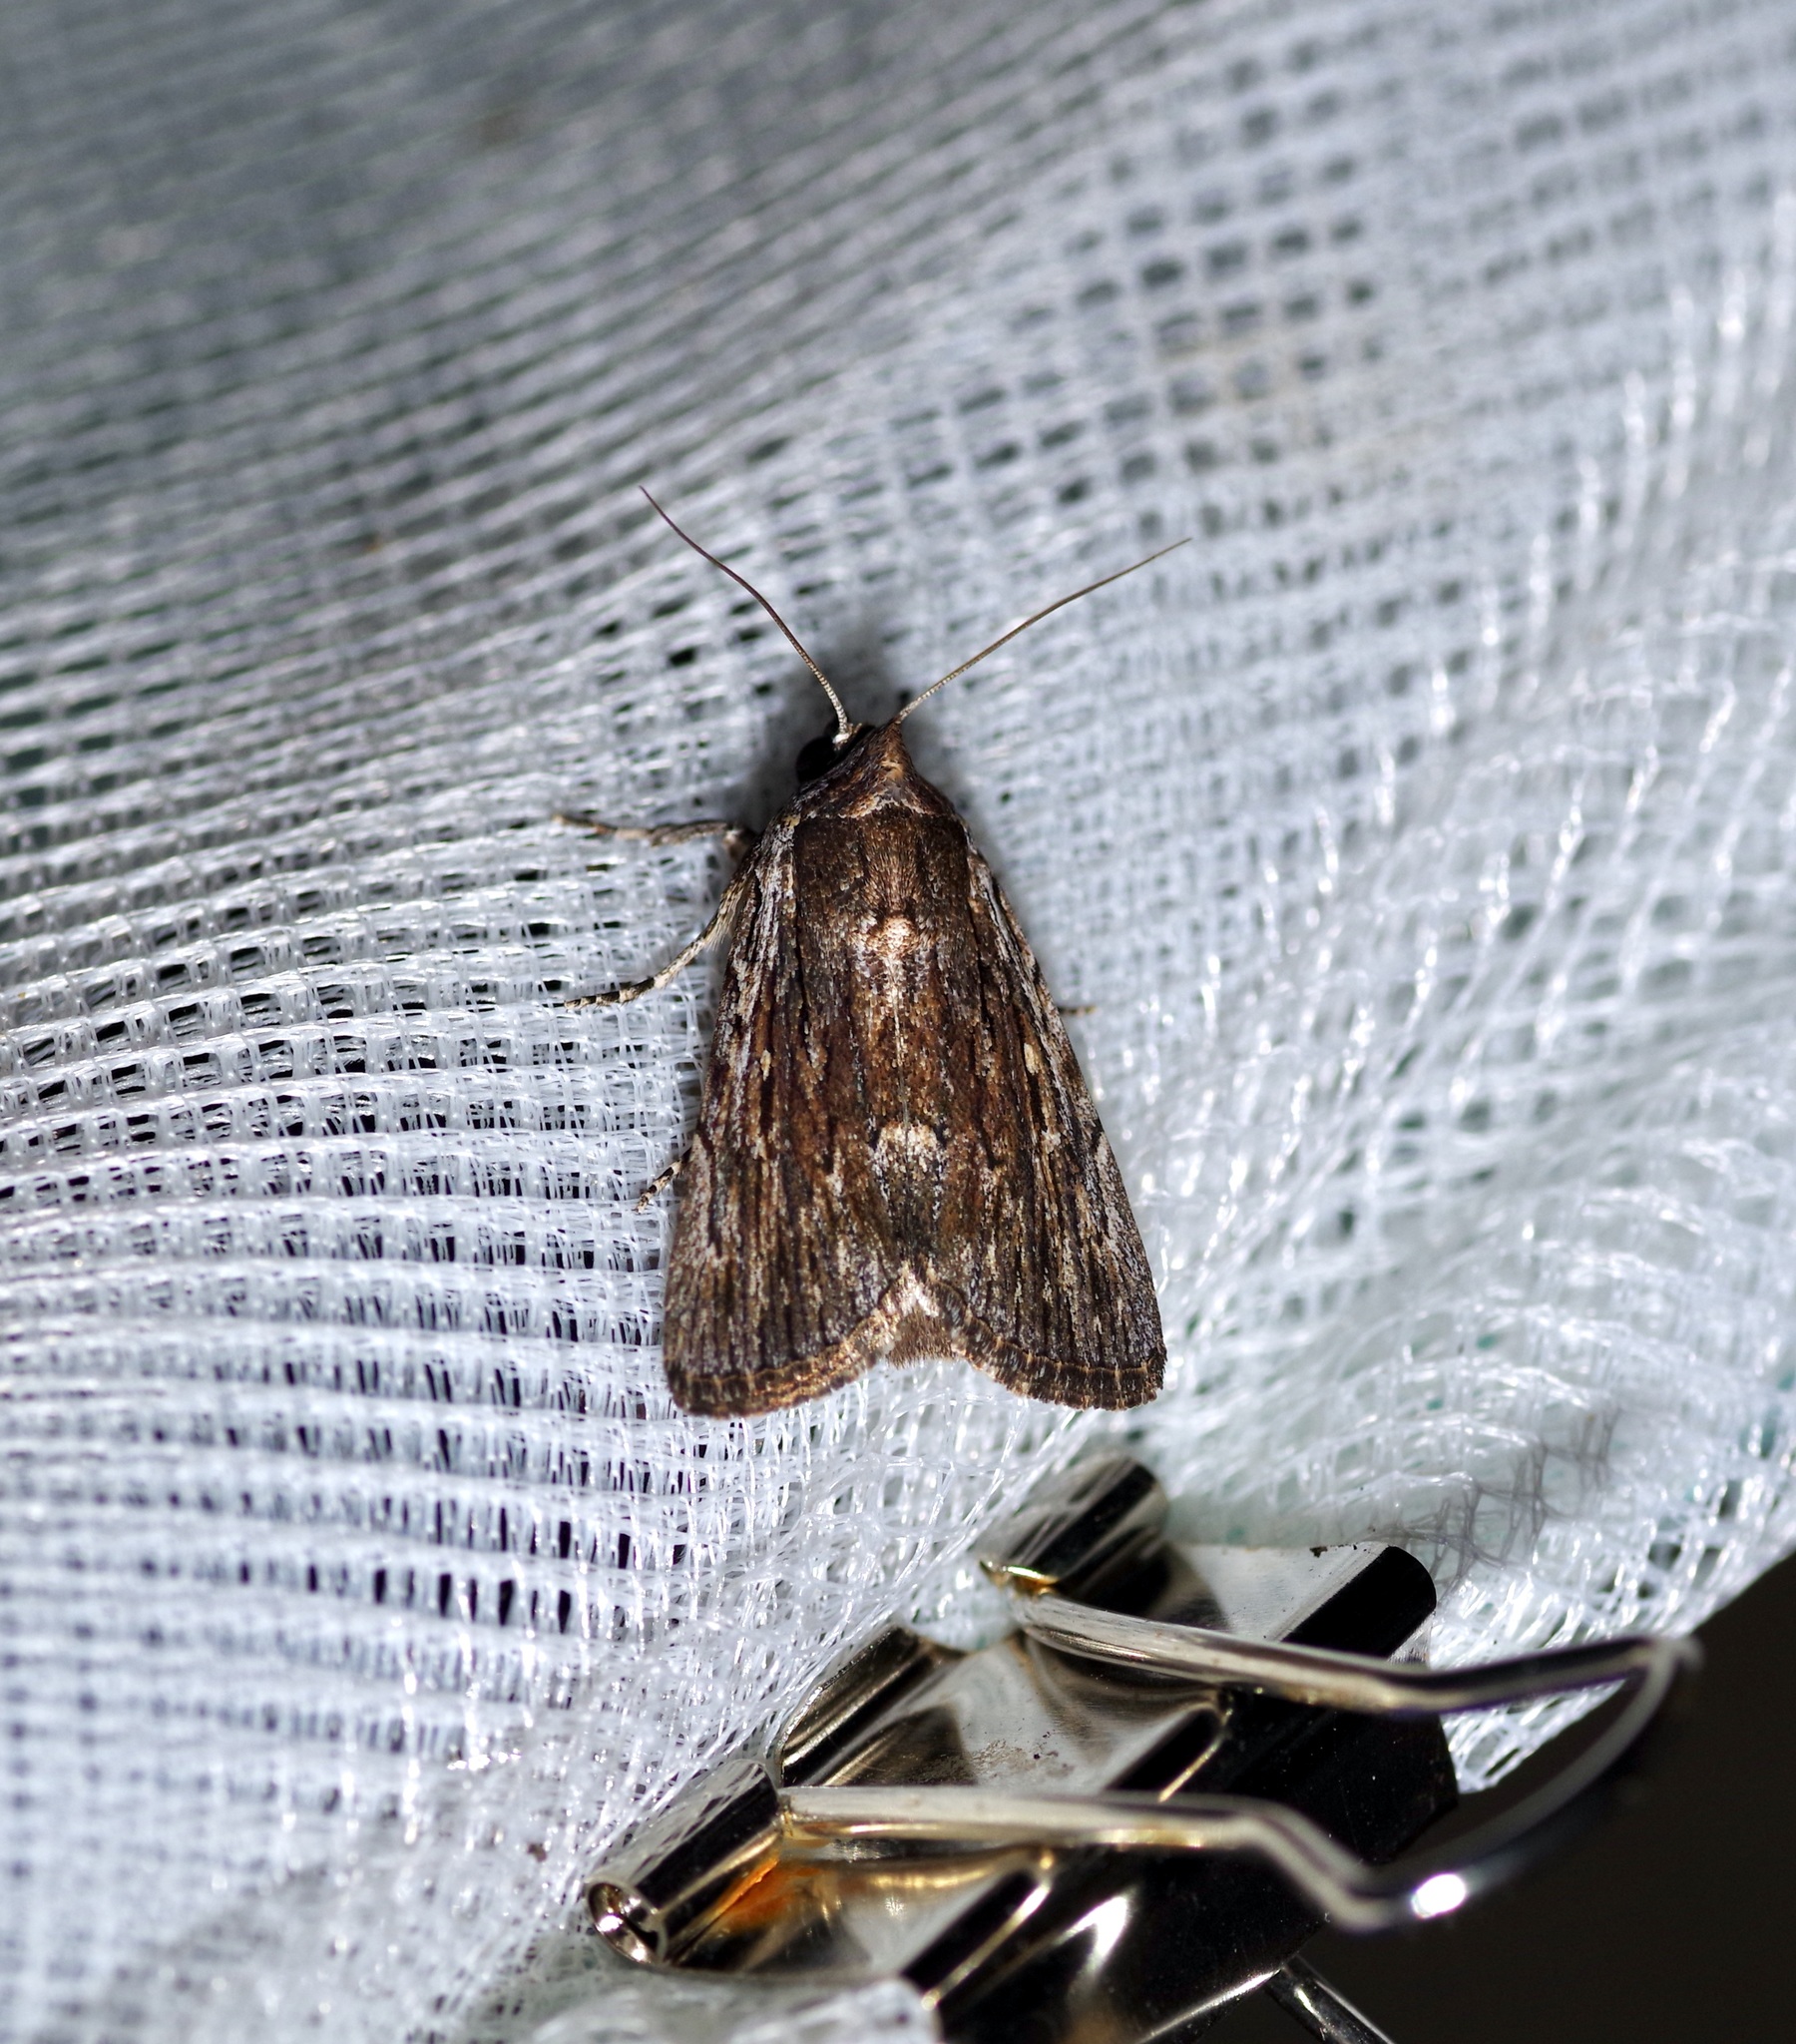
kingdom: Animalia
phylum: Arthropoda
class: Insecta
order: Lepidoptera
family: Noctuidae
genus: Neogalea
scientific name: Neogalea sunia
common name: Lantana stick caterpillar
